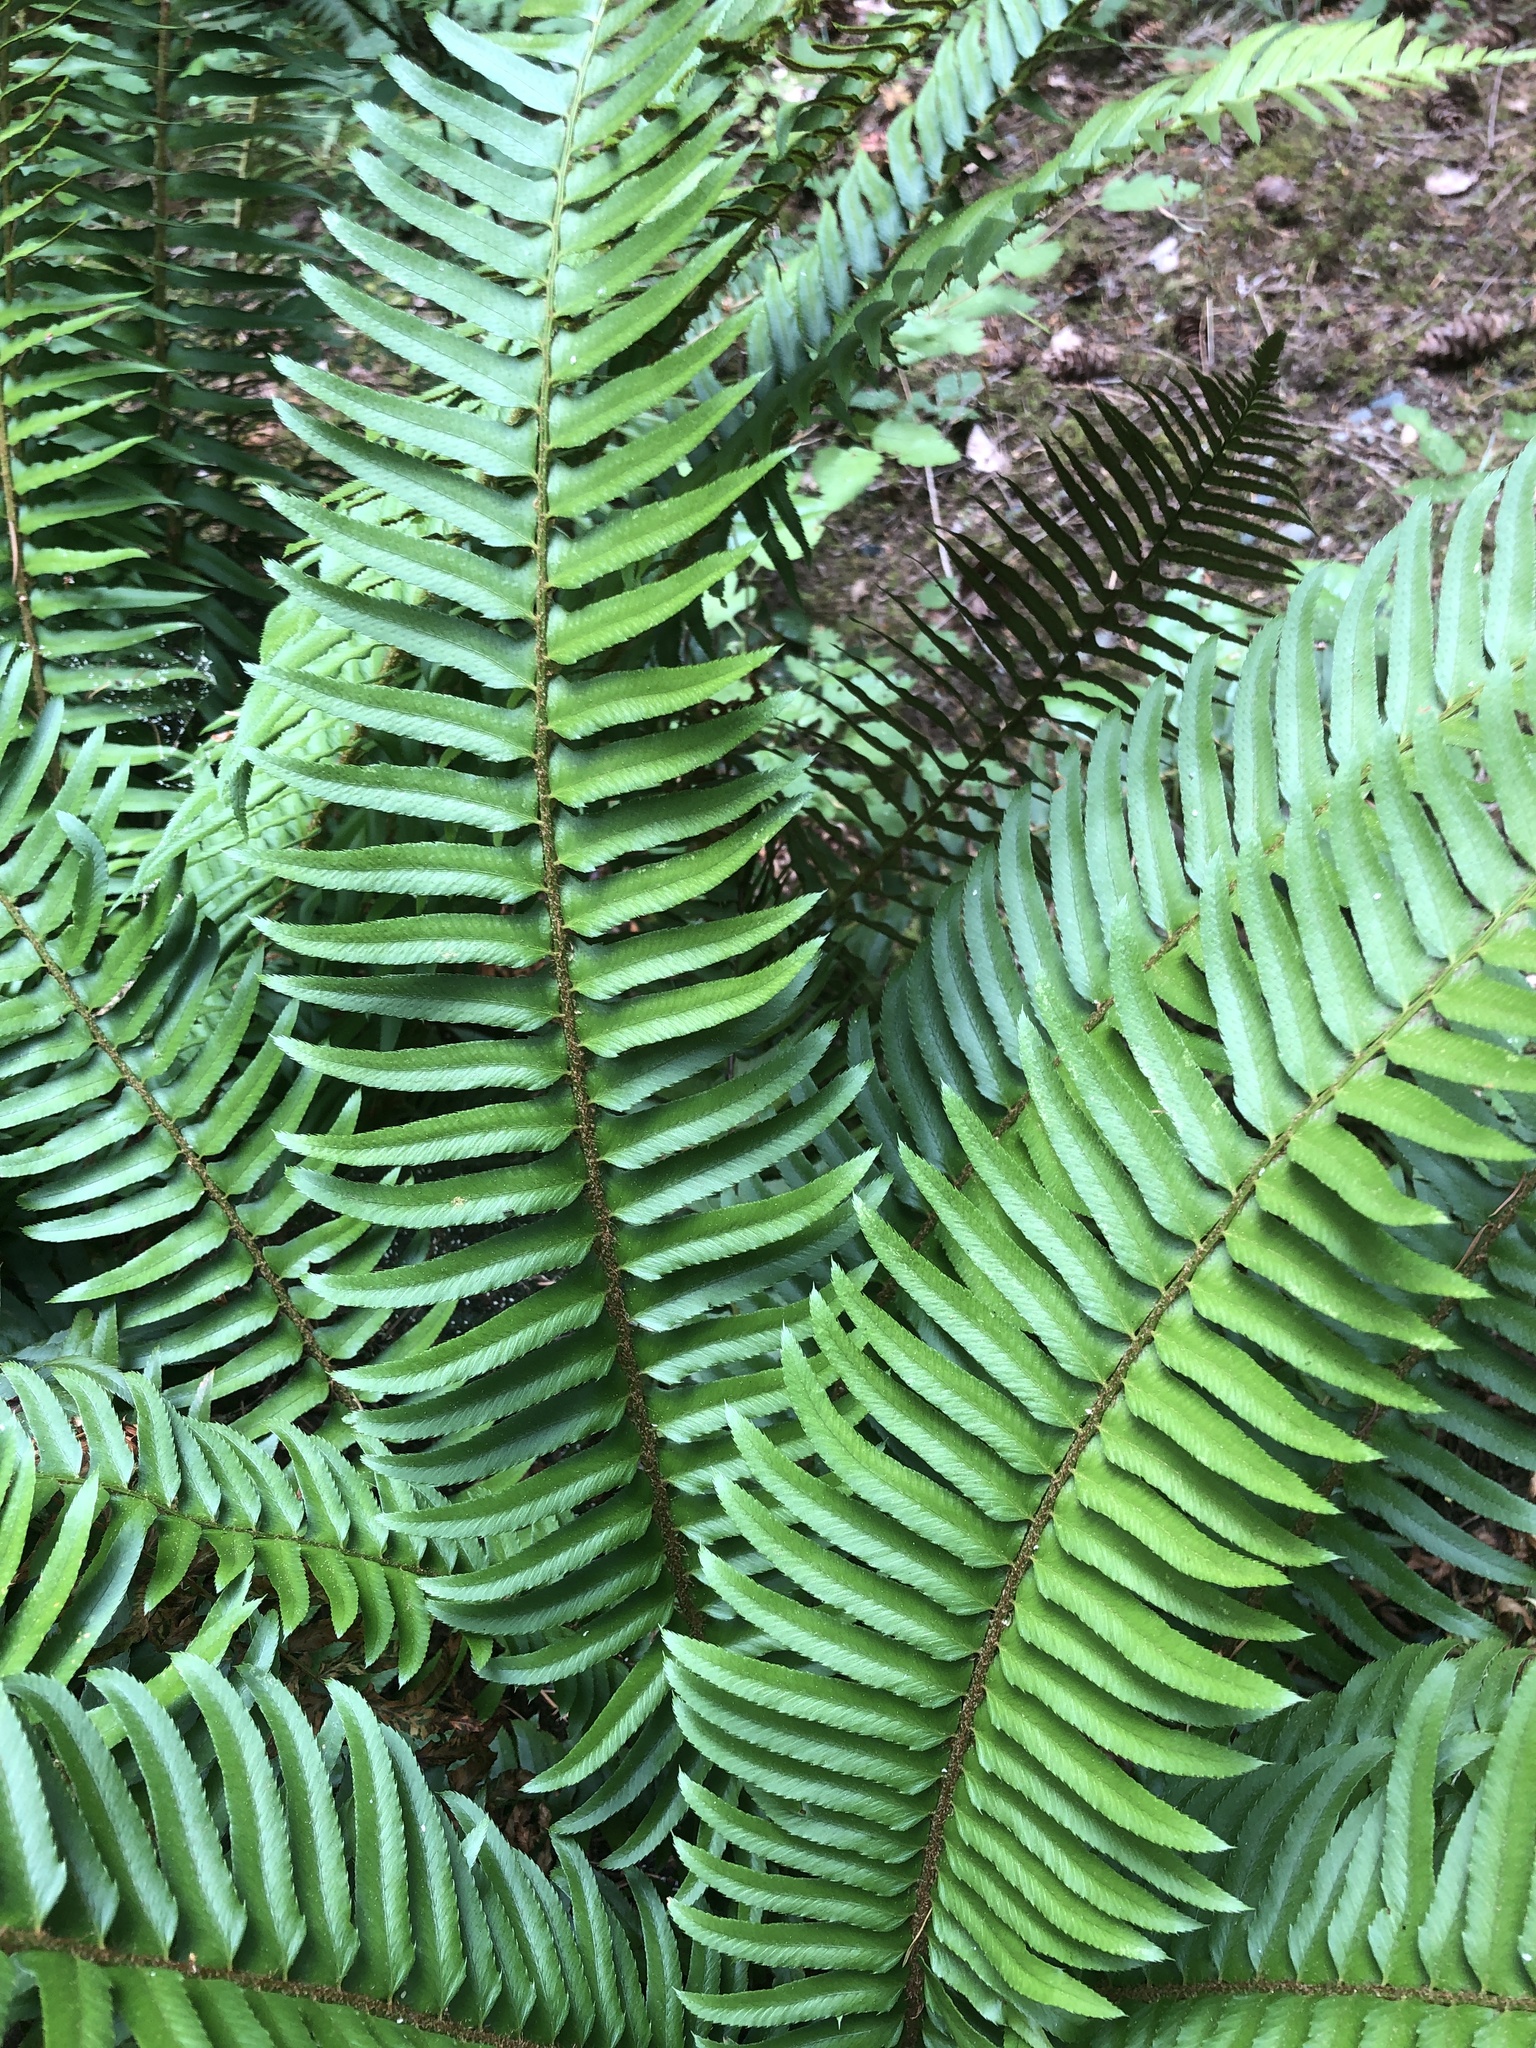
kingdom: Plantae
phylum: Tracheophyta
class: Polypodiopsida
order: Polypodiales
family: Dryopteridaceae
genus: Polystichum
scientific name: Polystichum munitum
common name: Western sword-fern
